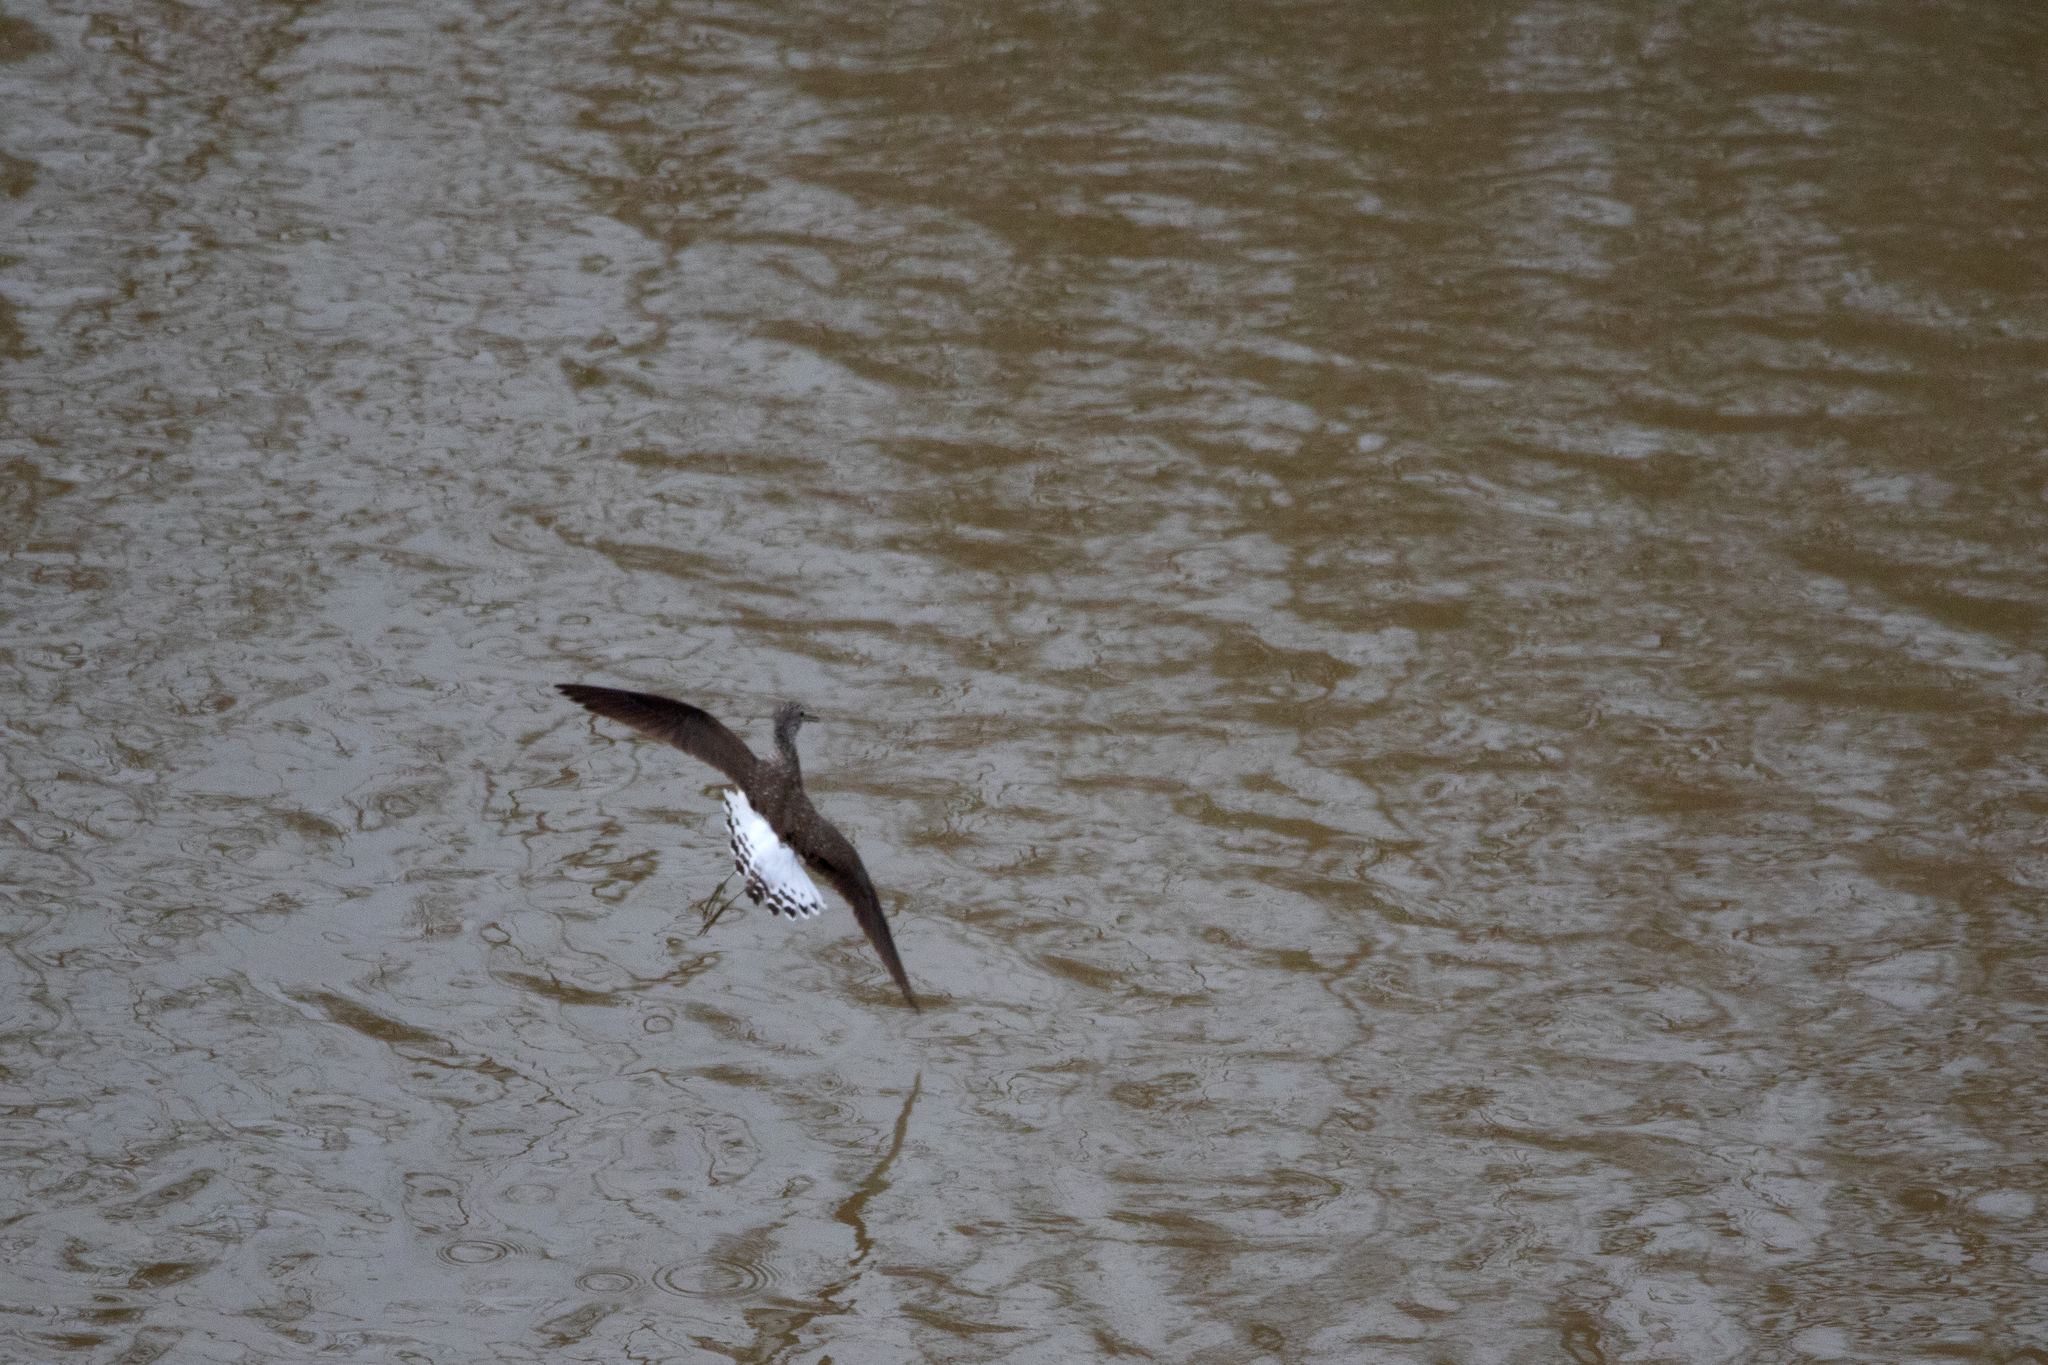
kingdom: Animalia
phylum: Chordata
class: Aves
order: Charadriiformes
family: Scolopacidae
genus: Tringa
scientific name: Tringa ochropus
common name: Green sandpiper
